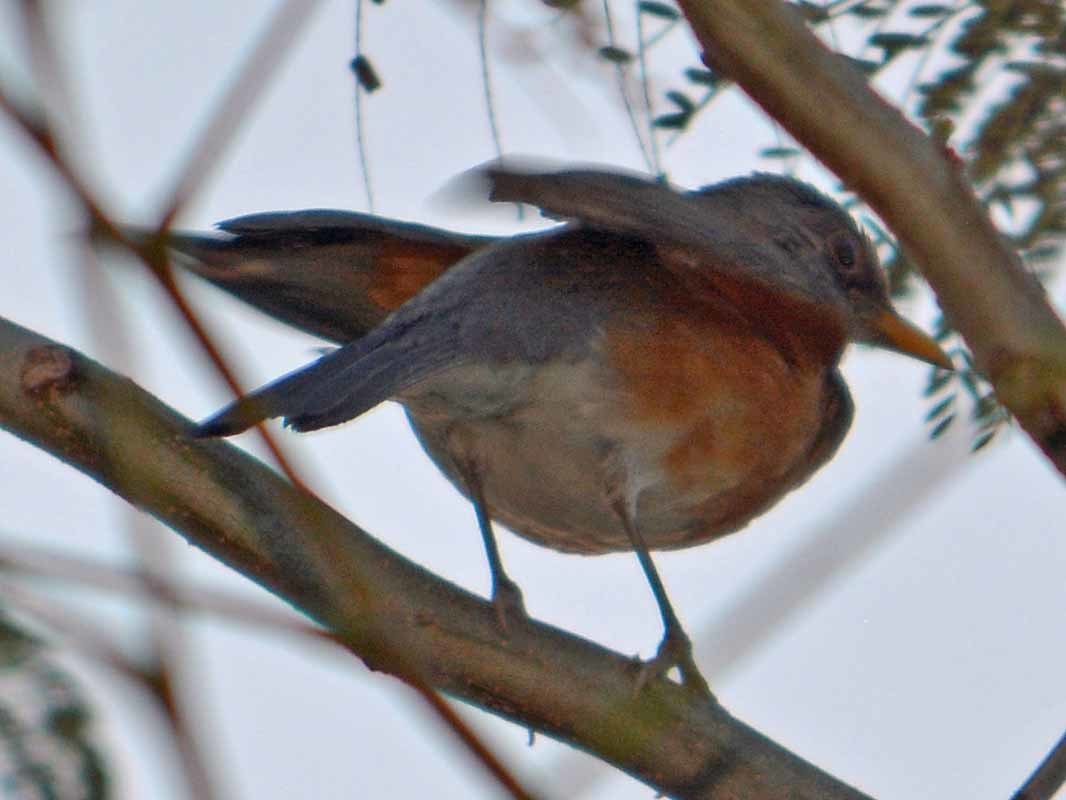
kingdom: Animalia
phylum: Chordata
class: Aves
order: Passeriformes
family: Turdidae
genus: Turdus
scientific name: Turdus rufopalliatus
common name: Rufous-backed robin
